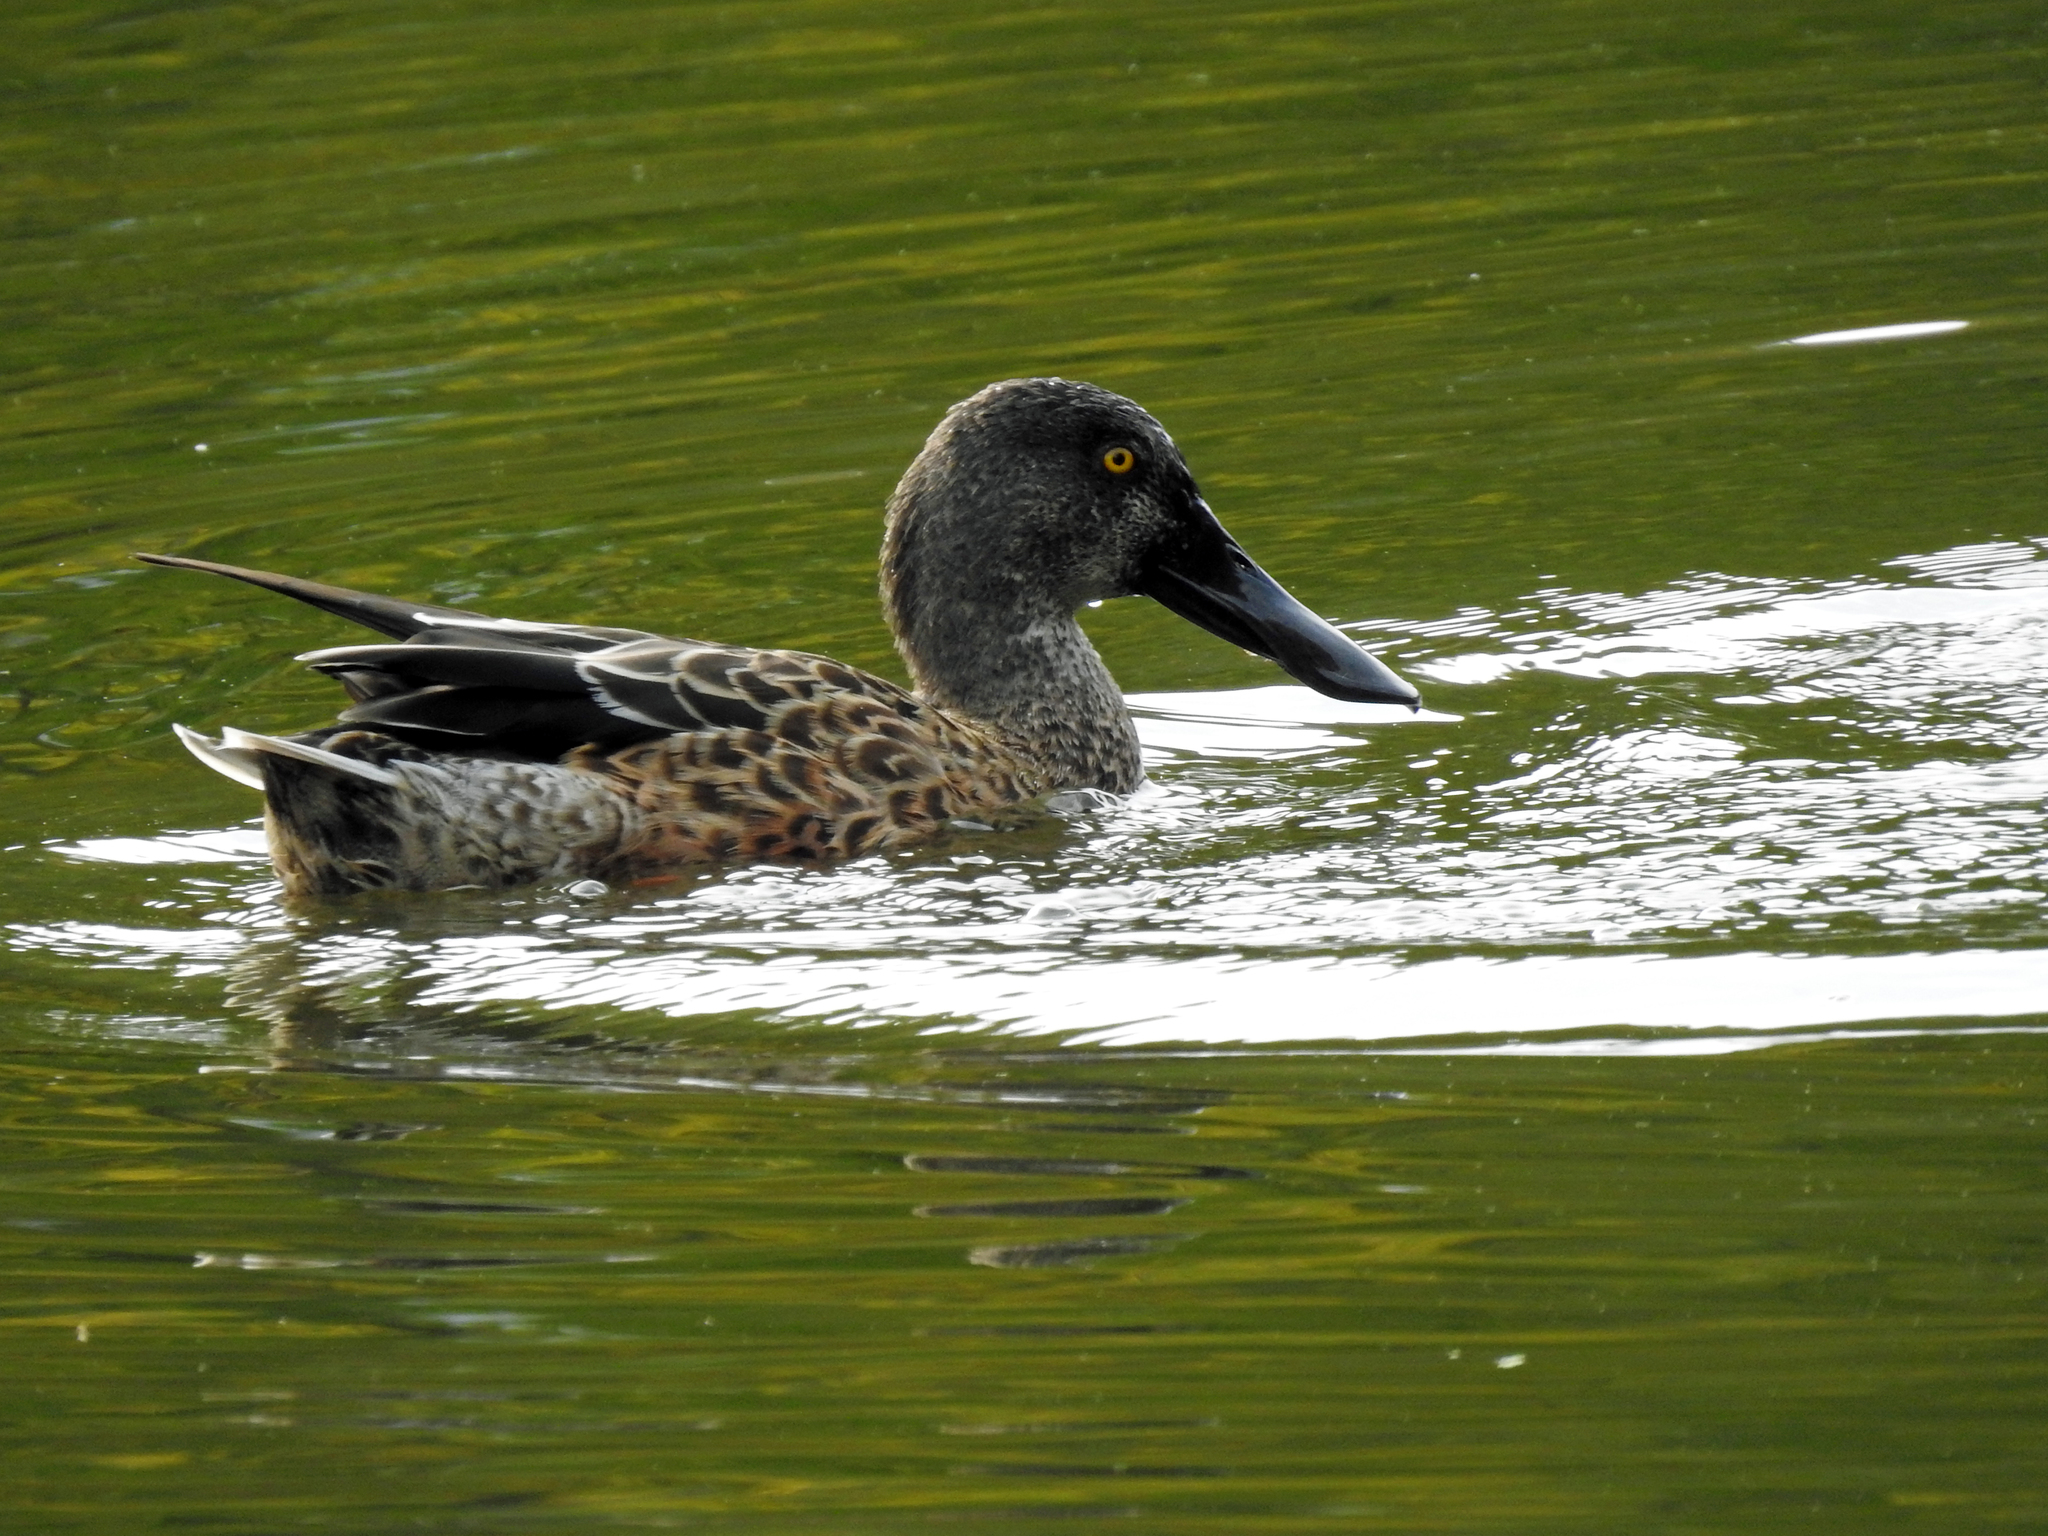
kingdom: Animalia
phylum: Chordata
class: Aves
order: Anseriformes
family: Anatidae
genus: Spatula
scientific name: Spatula clypeata
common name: Northern shoveler
